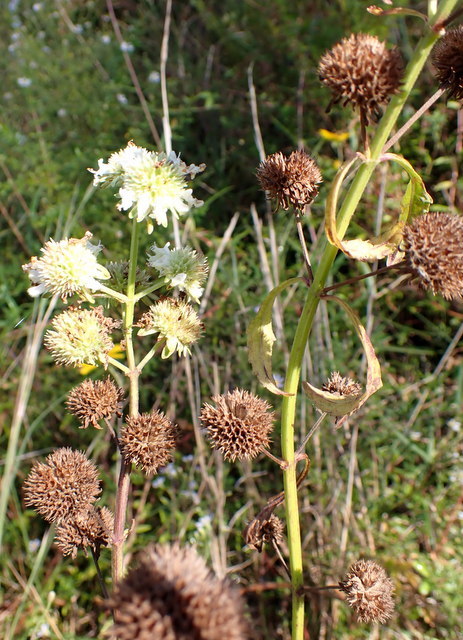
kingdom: Plantae
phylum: Tracheophyta
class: Magnoliopsida
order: Lamiales
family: Lamiaceae
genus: Hyptis
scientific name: Hyptis alata
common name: Cluster bush-mint
